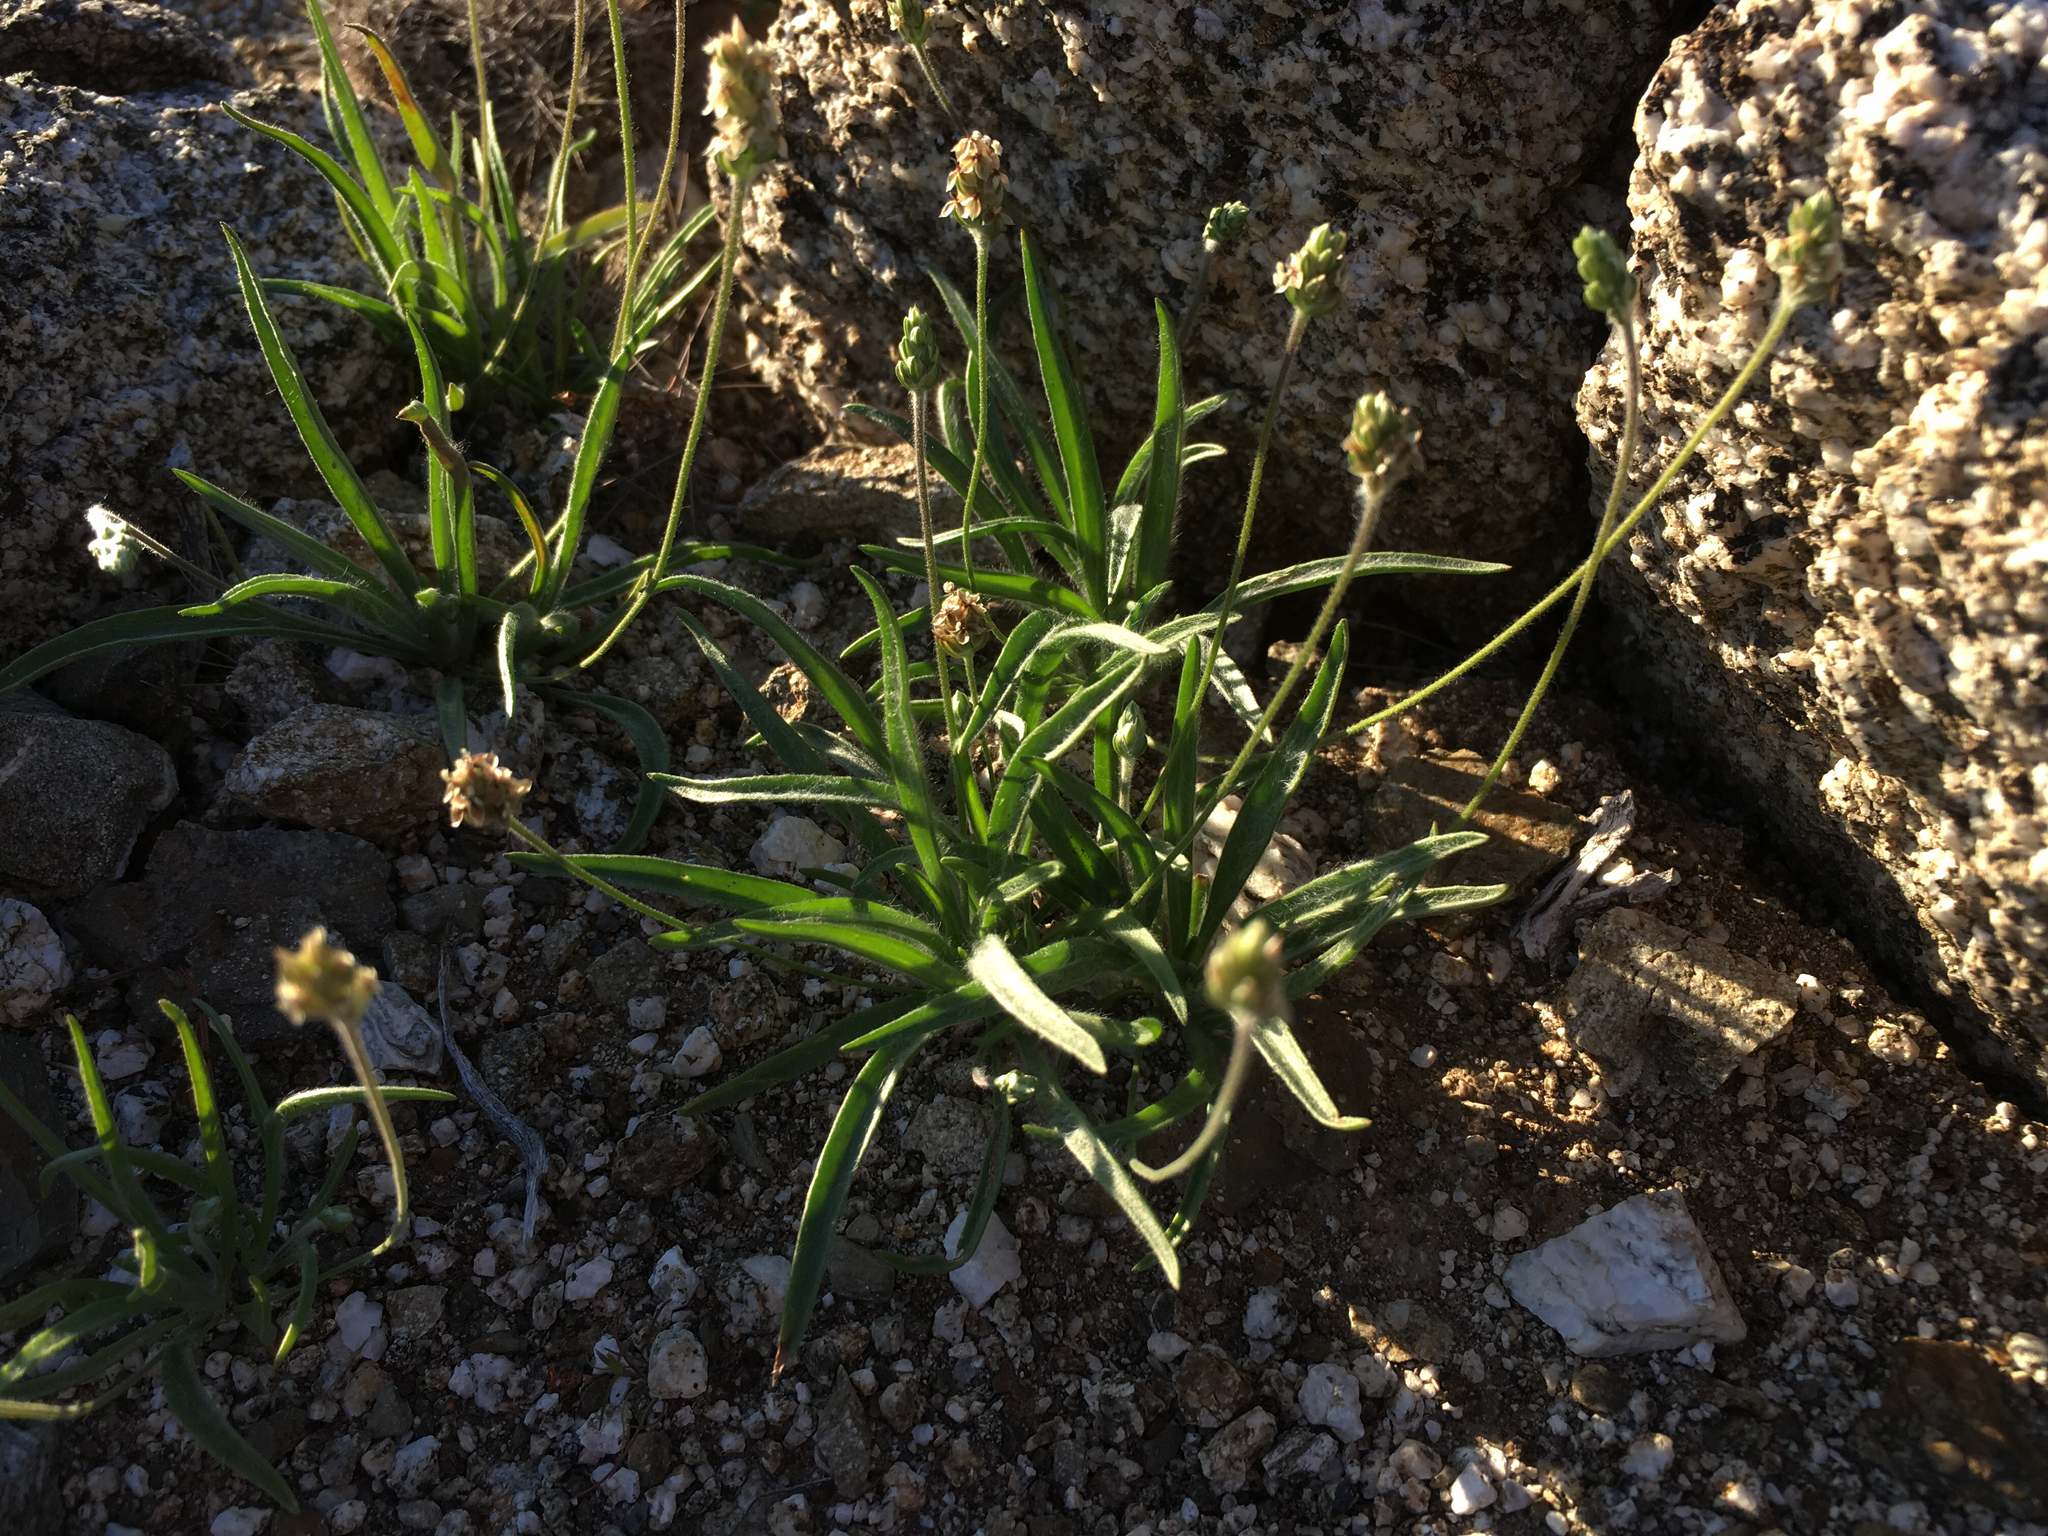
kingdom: Plantae
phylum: Tracheophyta
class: Magnoliopsida
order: Lamiales
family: Plantaginaceae
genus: Plantago
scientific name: Plantago ovata
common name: Blond plantain
